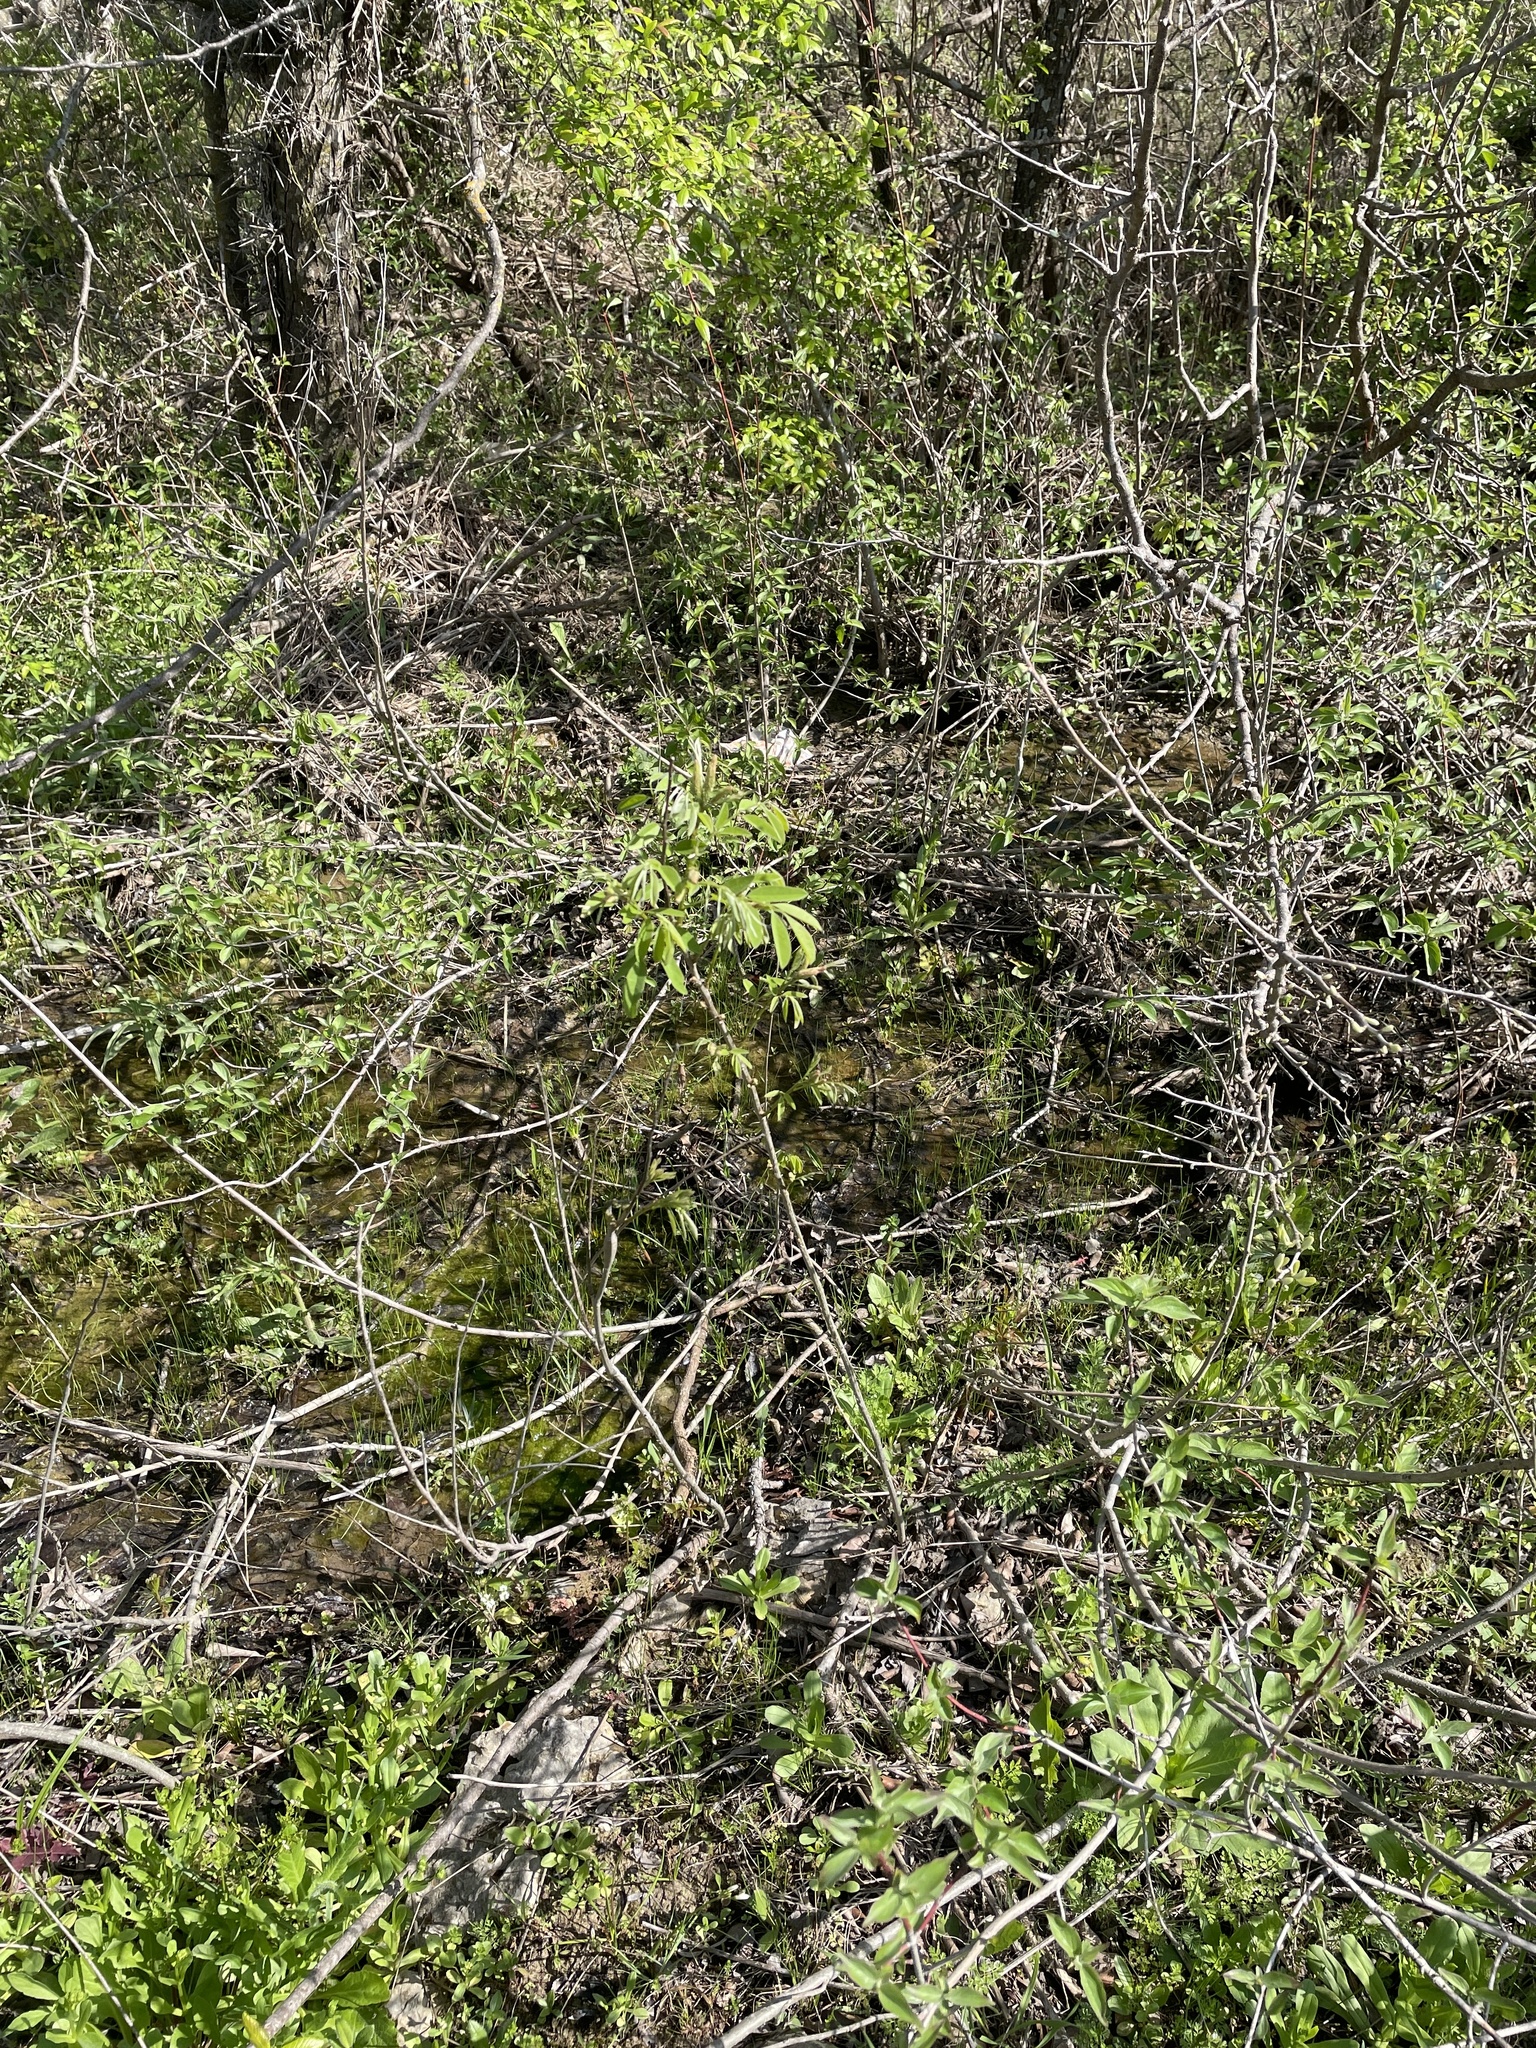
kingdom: Plantae
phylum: Tracheophyta
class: Magnoliopsida
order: Fabales
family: Fabaceae
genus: Amorpha
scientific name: Amorpha fruticosa
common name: False indigo
